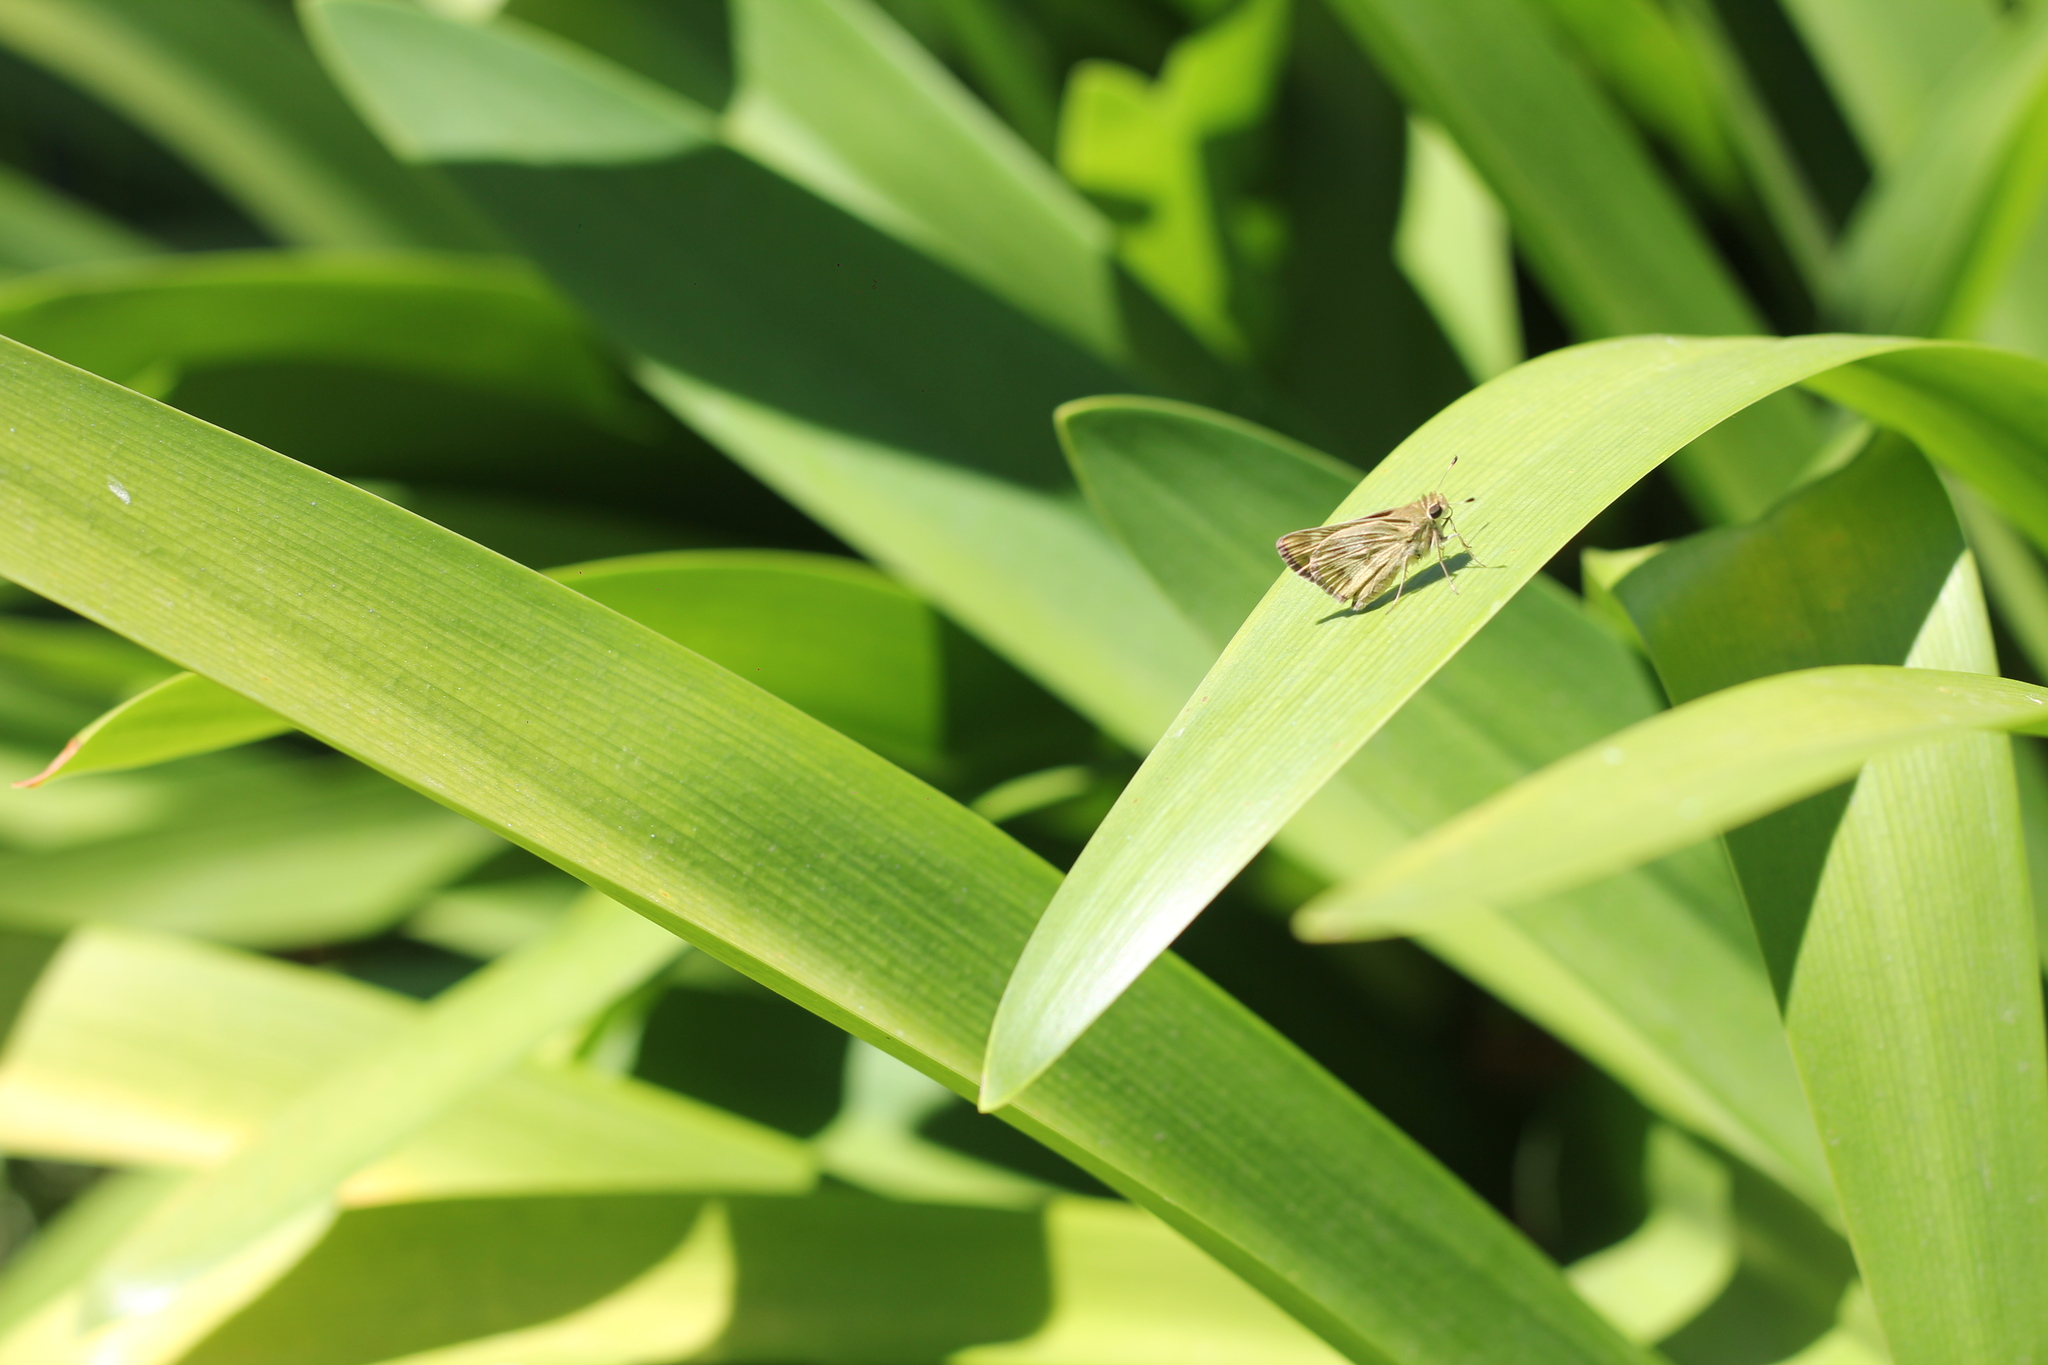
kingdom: Animalia
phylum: Arthropoda
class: Insecta
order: Lepidoptera
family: Hesperiidae
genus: Polites
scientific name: Polites vibex
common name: Whirlabout
